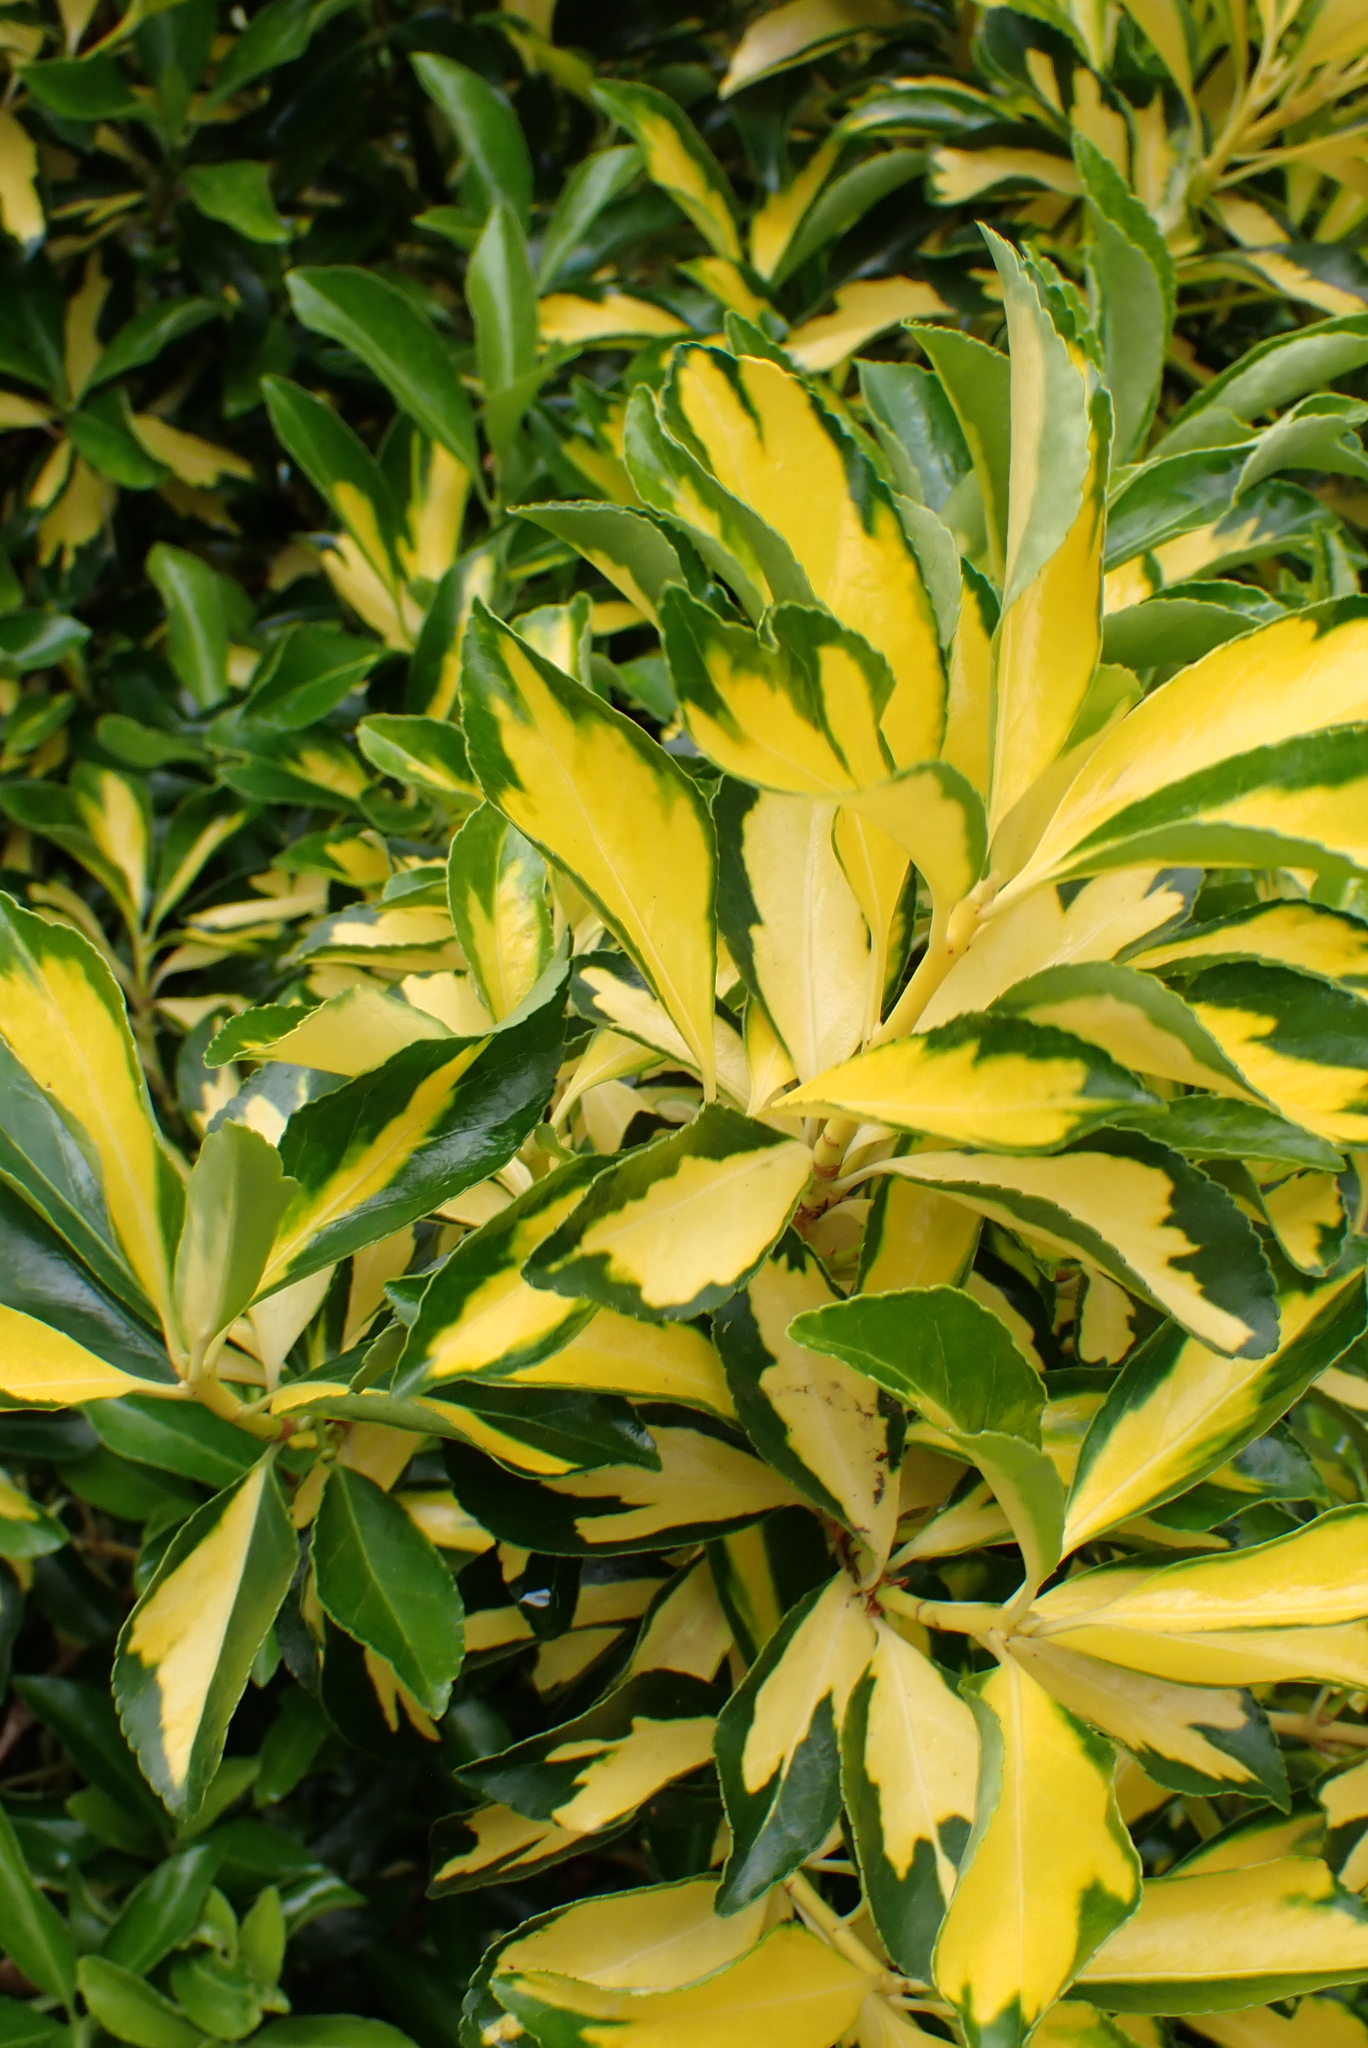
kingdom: Plantae
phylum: Tracheophyta
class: Magnoliopsida
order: Celastrales
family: Celastraceae
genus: Euonymus
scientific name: Euonymus japonicus
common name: Japanese spindletree
